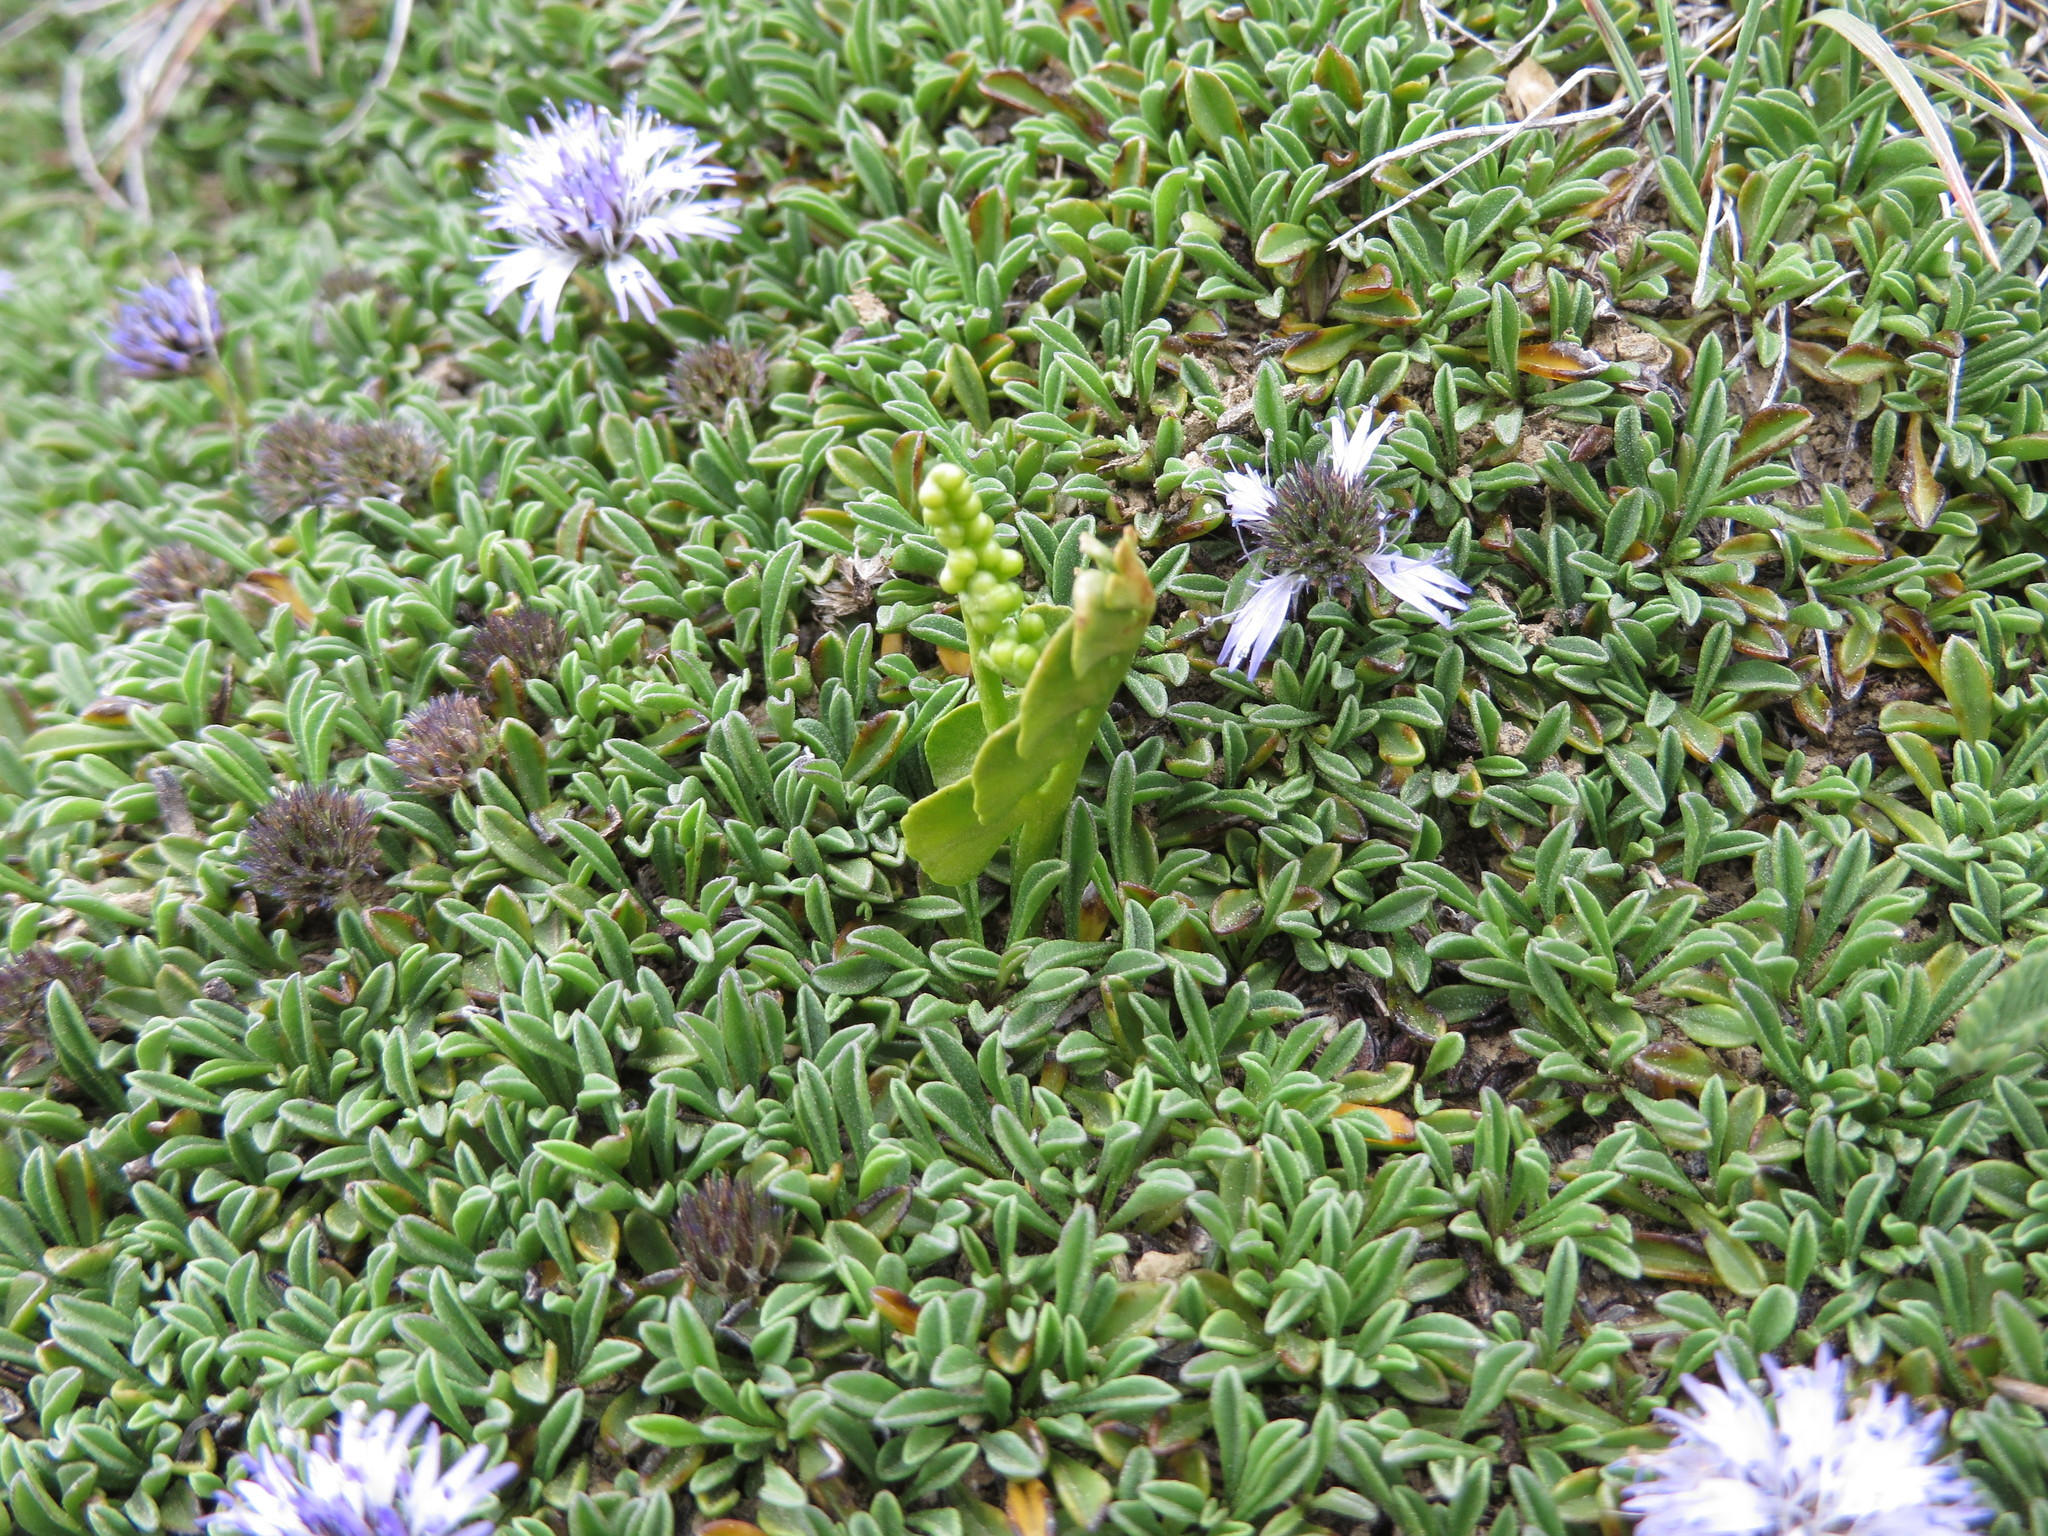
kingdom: Plantae
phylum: Tracheophyta
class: Polypodiopsida
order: Ophioglossales
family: Ophioglossaceae
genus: Botrychium
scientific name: Botrychium lunaria
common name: Moonwort
